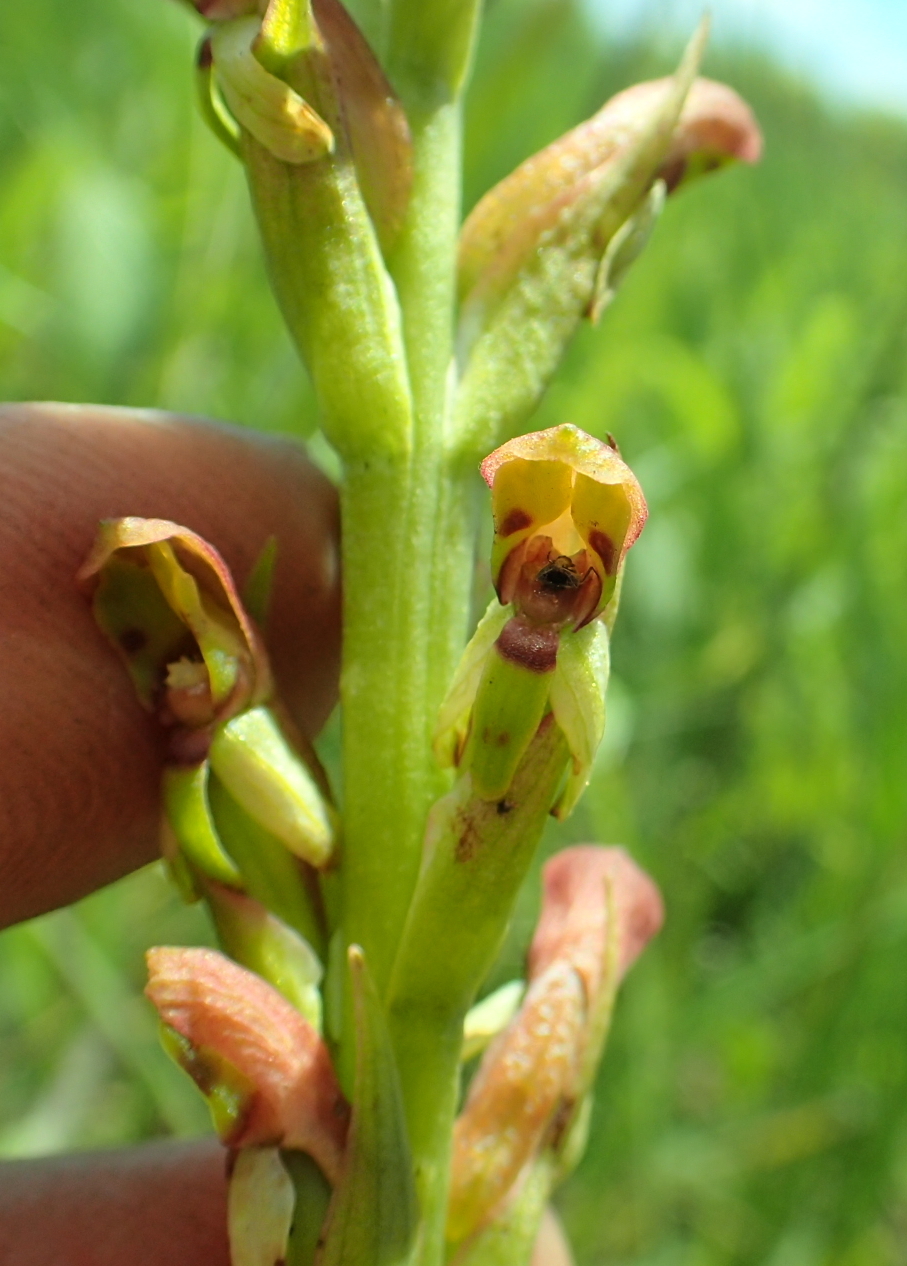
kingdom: Plantae
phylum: Tracheophyta
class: Liliopsida
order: Asparagales
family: Orchidaceae
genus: Disa
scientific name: Disa brevicornis
